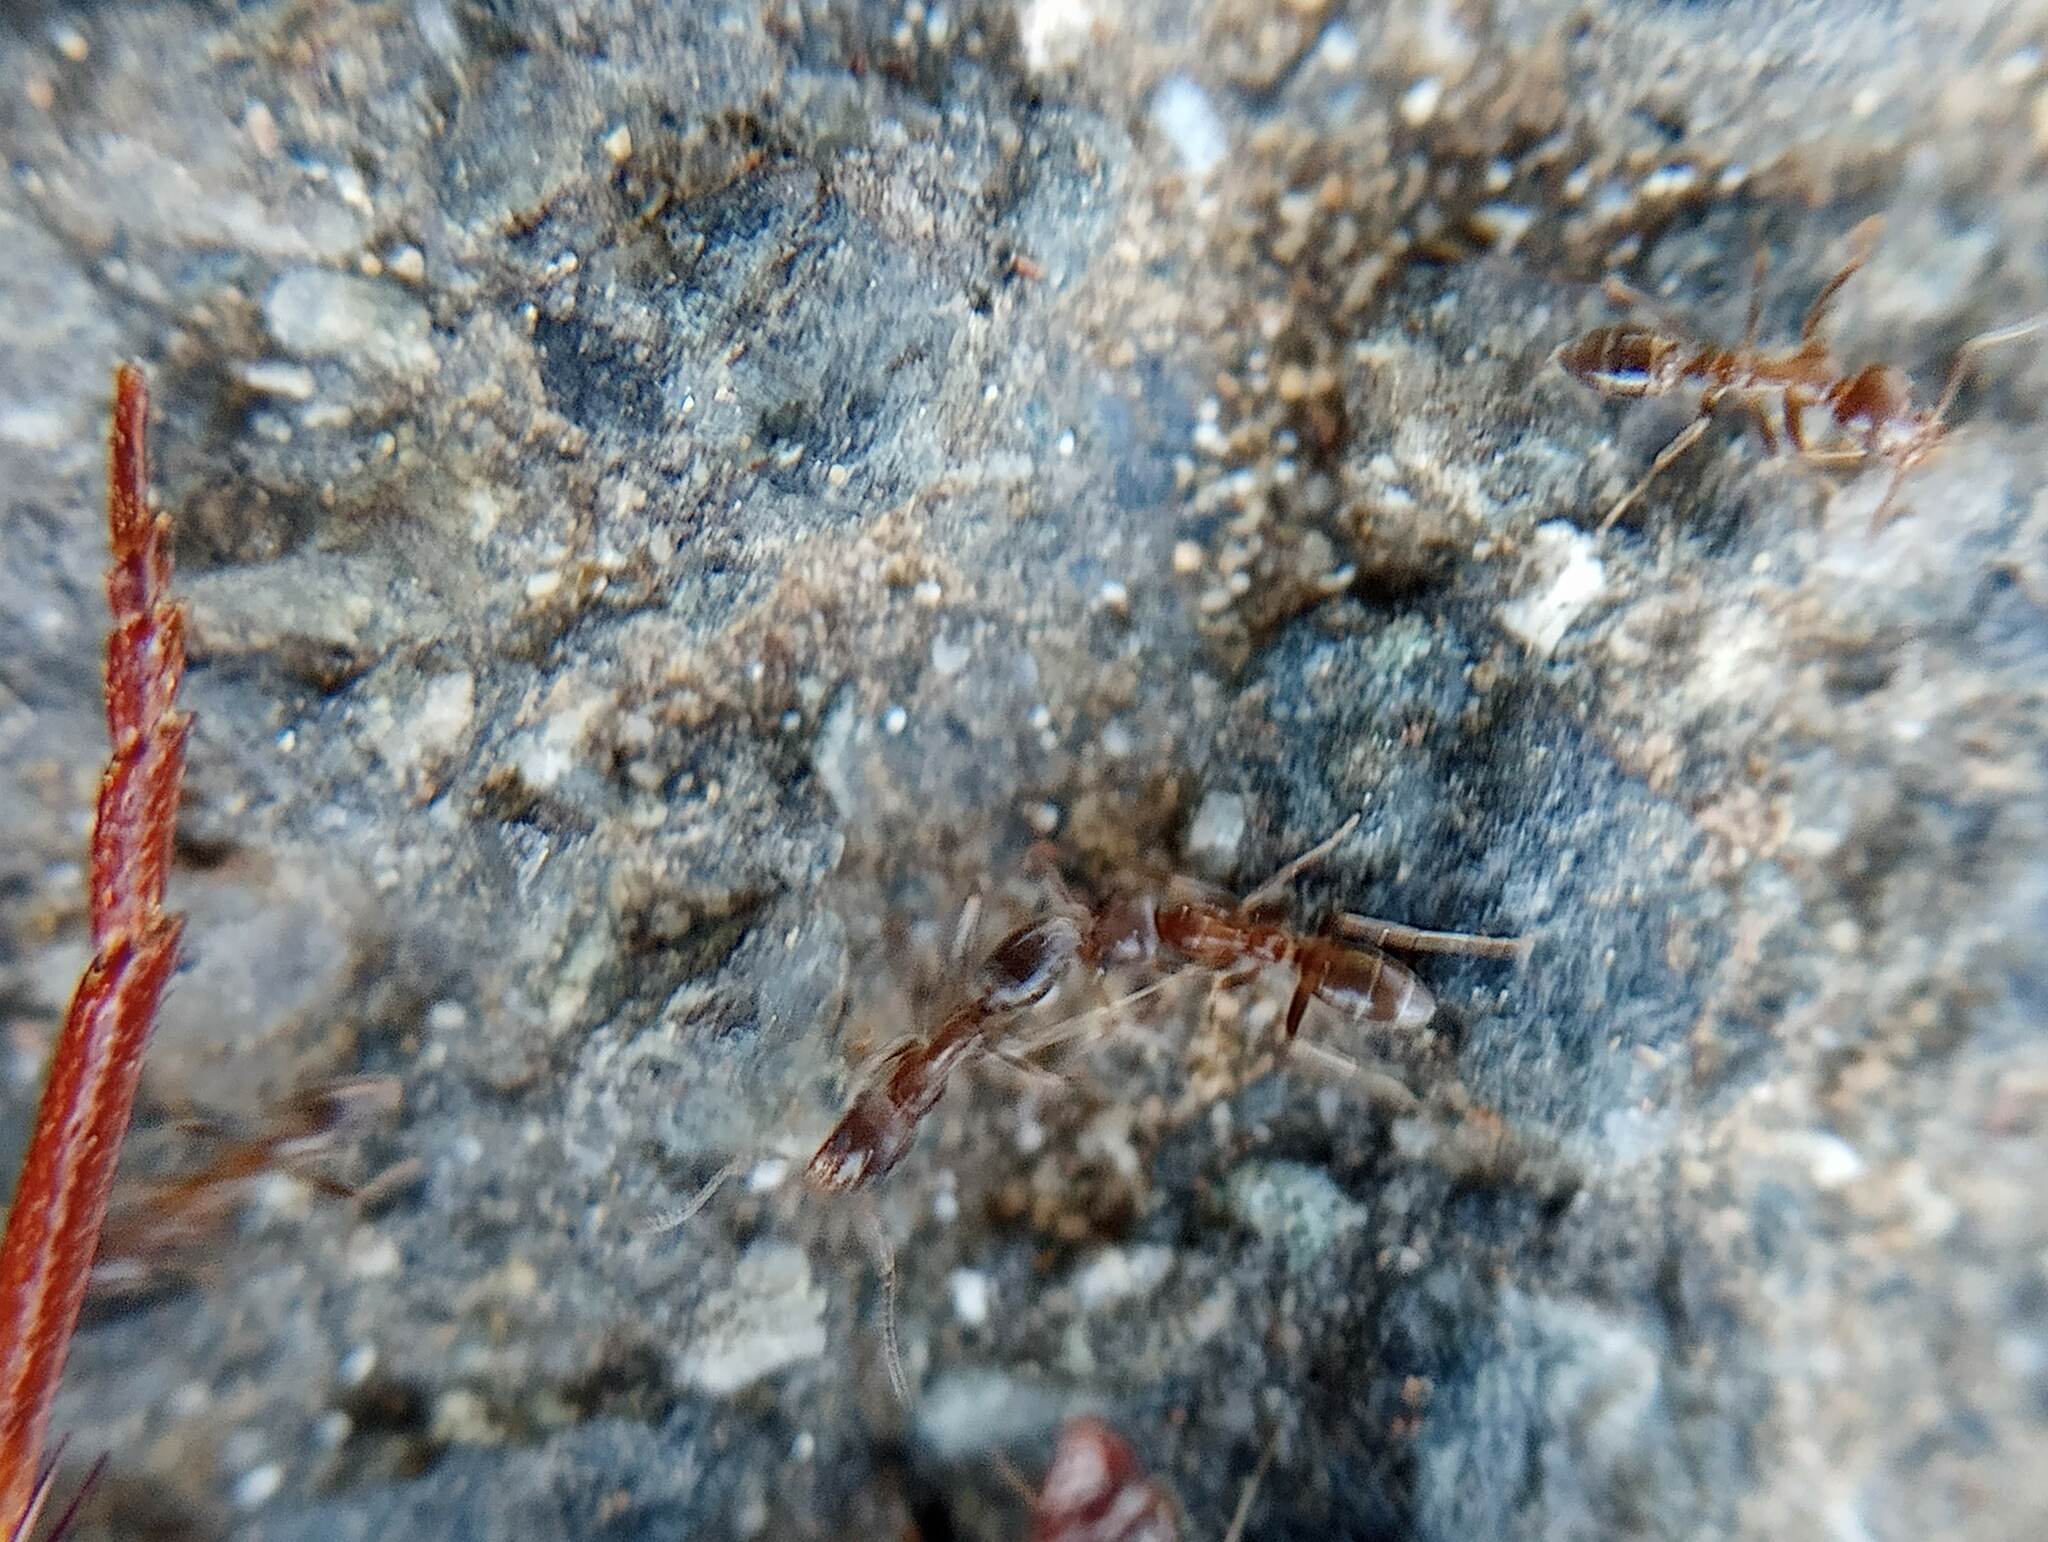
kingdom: Animalia
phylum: Arthropoda
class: Insecta
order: Hymenoptera
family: Formicidae
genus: Linepithema
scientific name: Linepithema humile
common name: Argentine ant
